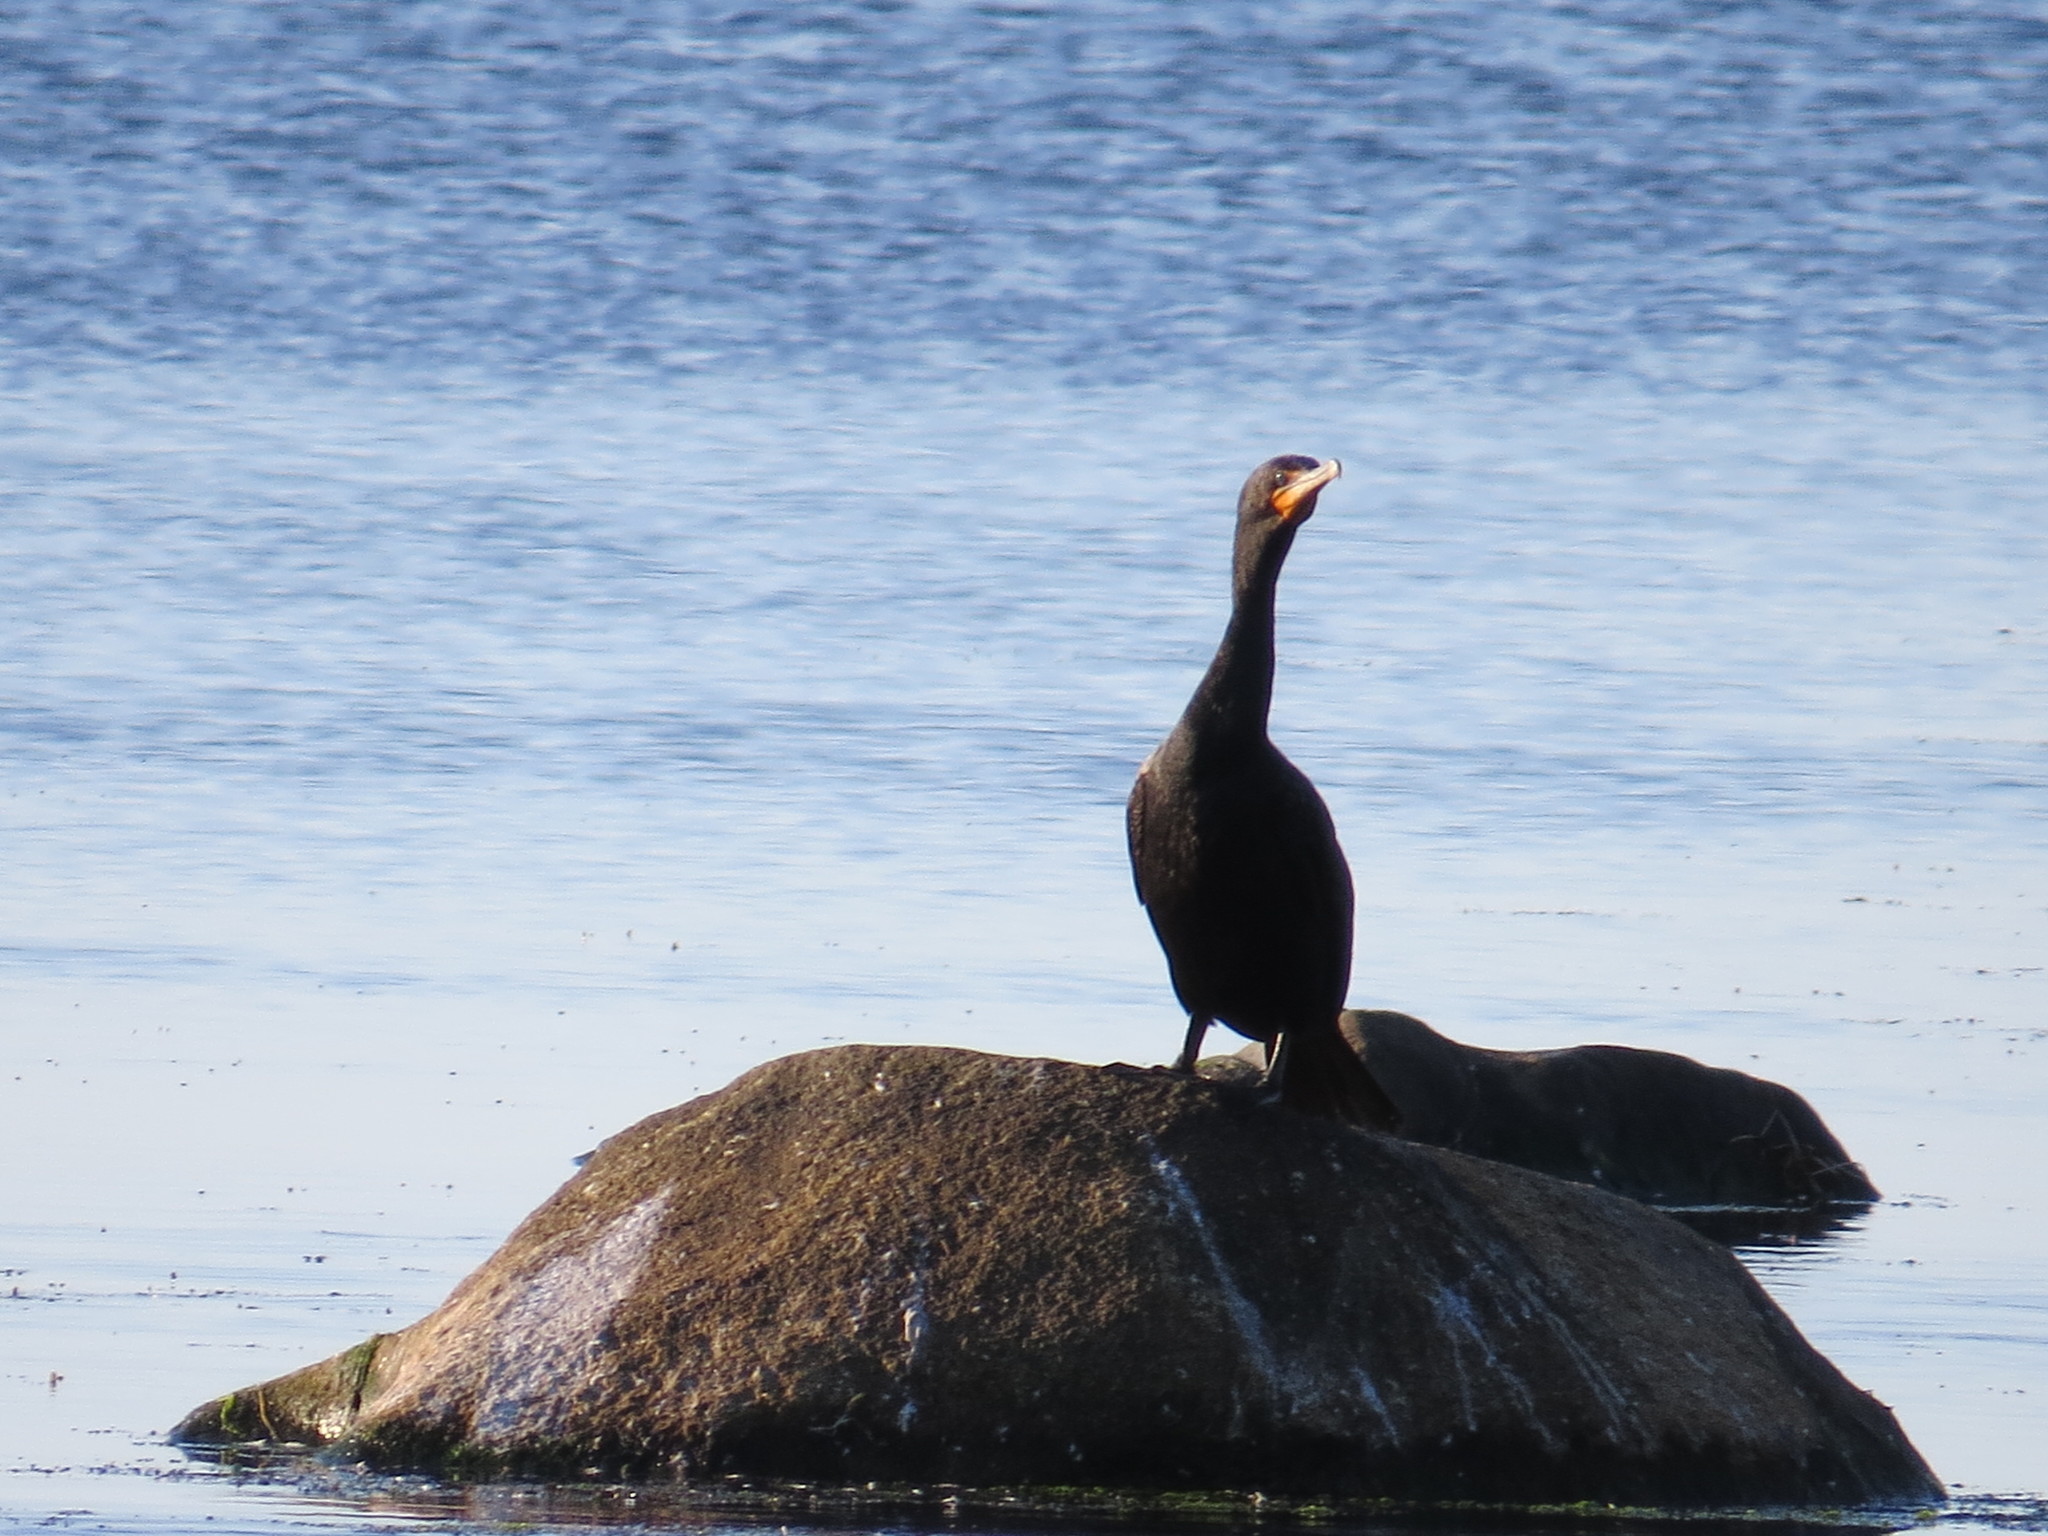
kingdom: Animalia
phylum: Chordata
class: Aves
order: Suliformes
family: Phalacrocoracidae
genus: Phalacrocorax
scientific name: Phalacrocorax auritus
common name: Double-crested cormorant
